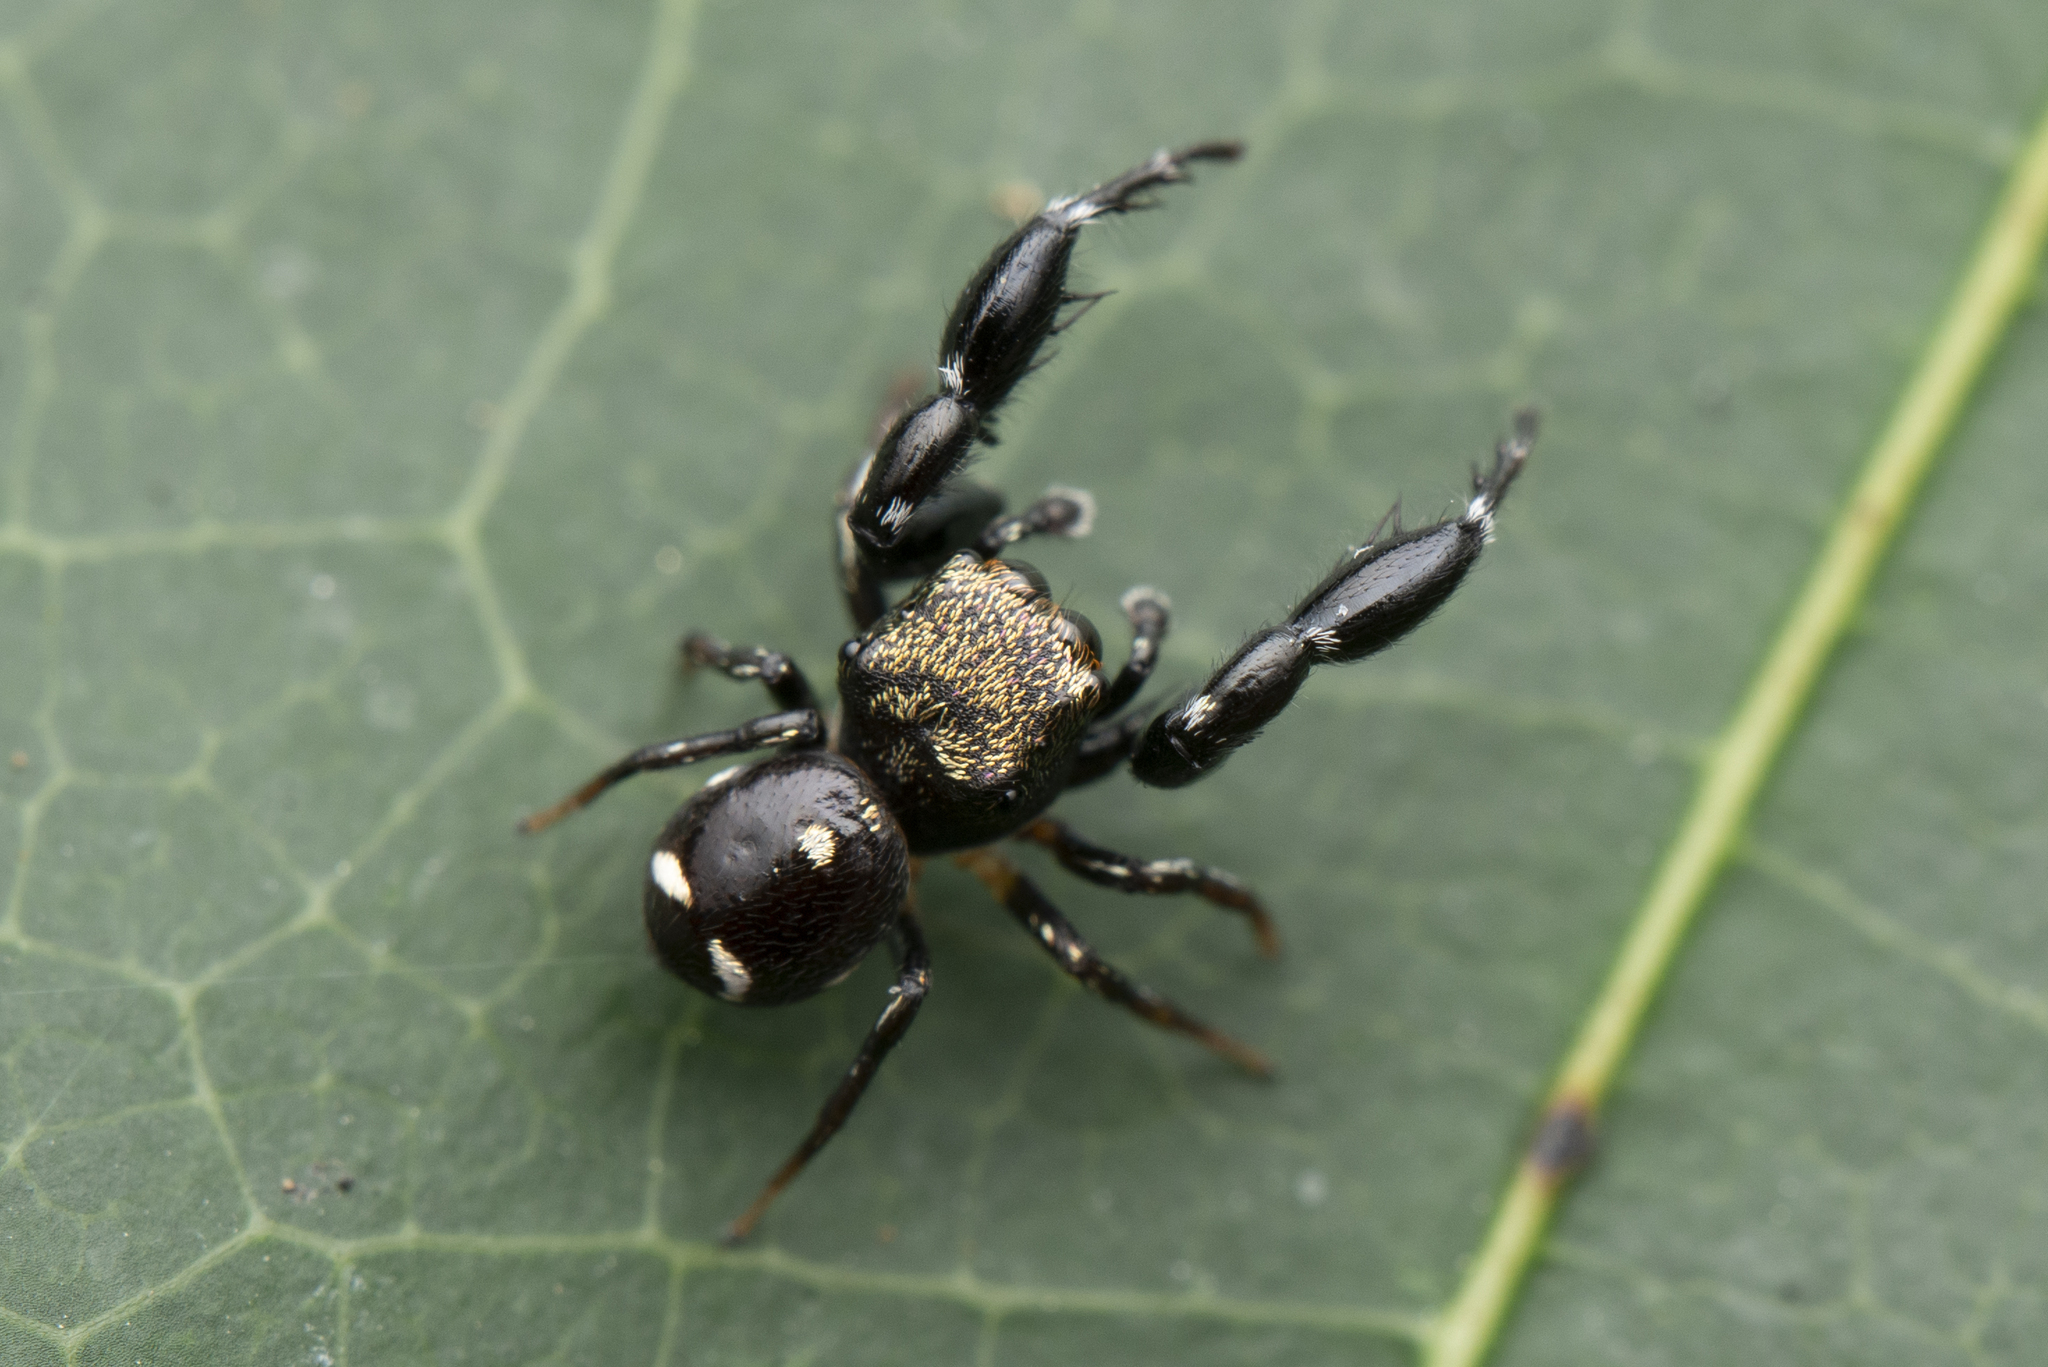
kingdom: Animalia
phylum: Arthropoda
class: Arachnida
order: Araneae
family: Salticidae
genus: Harmochirus
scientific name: Harmochirus insulanus
